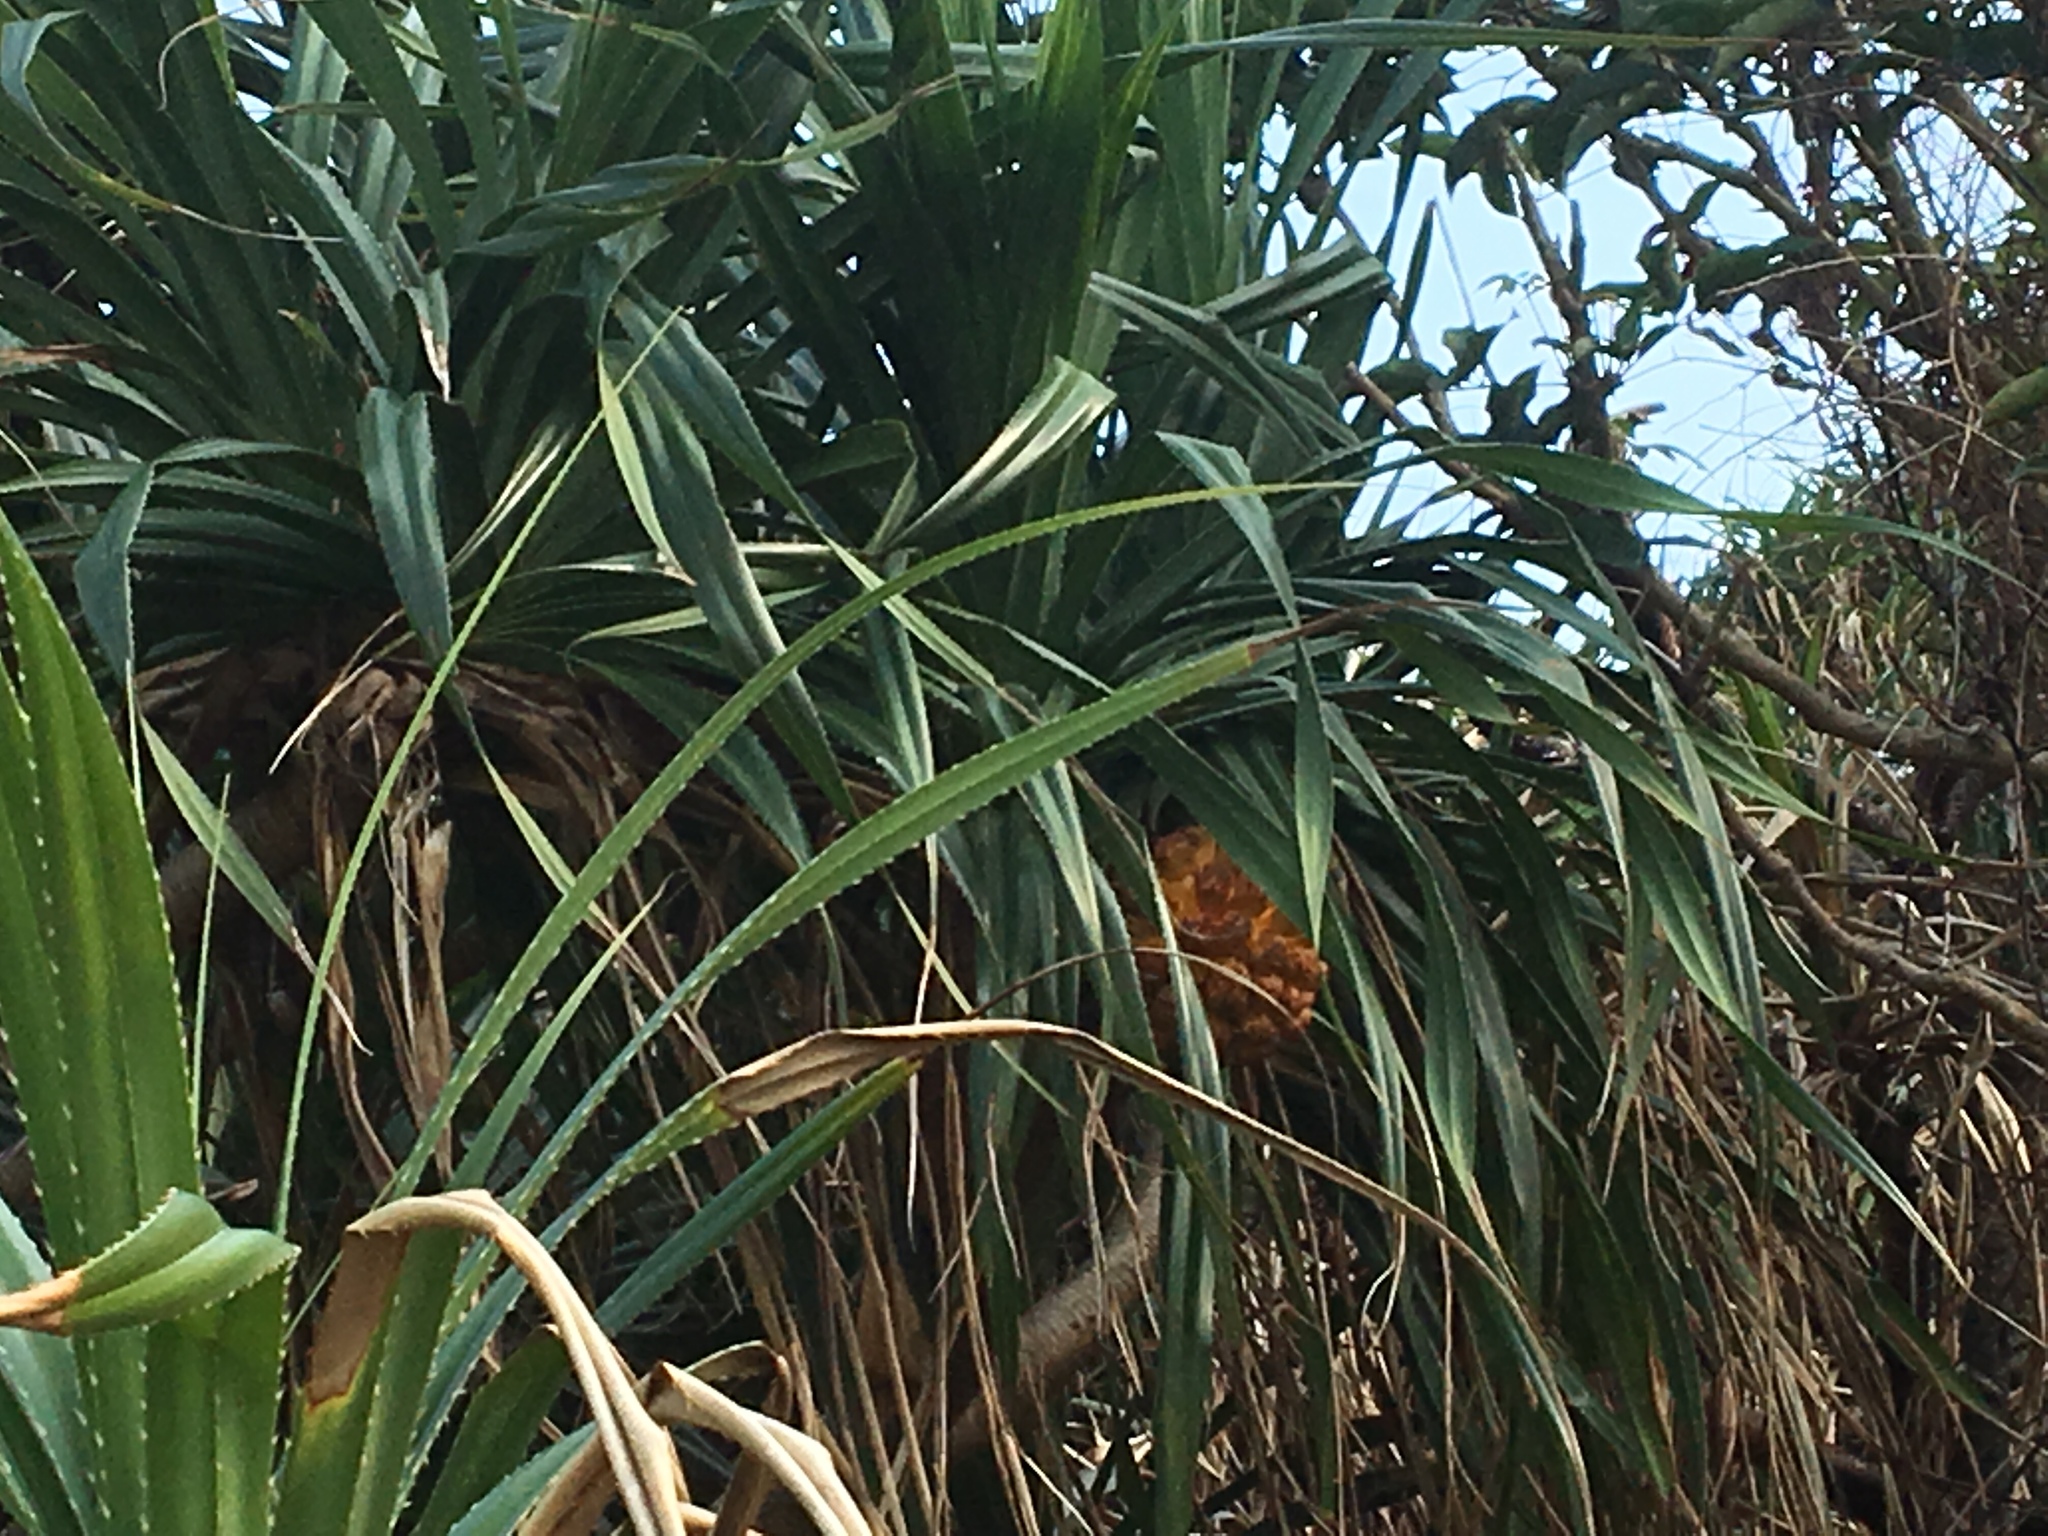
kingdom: Plantae
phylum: Tracheophyta
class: Liliopsida
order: Pandanales
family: Pandanaceae
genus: Pandanus
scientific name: Pandanus tectorius
